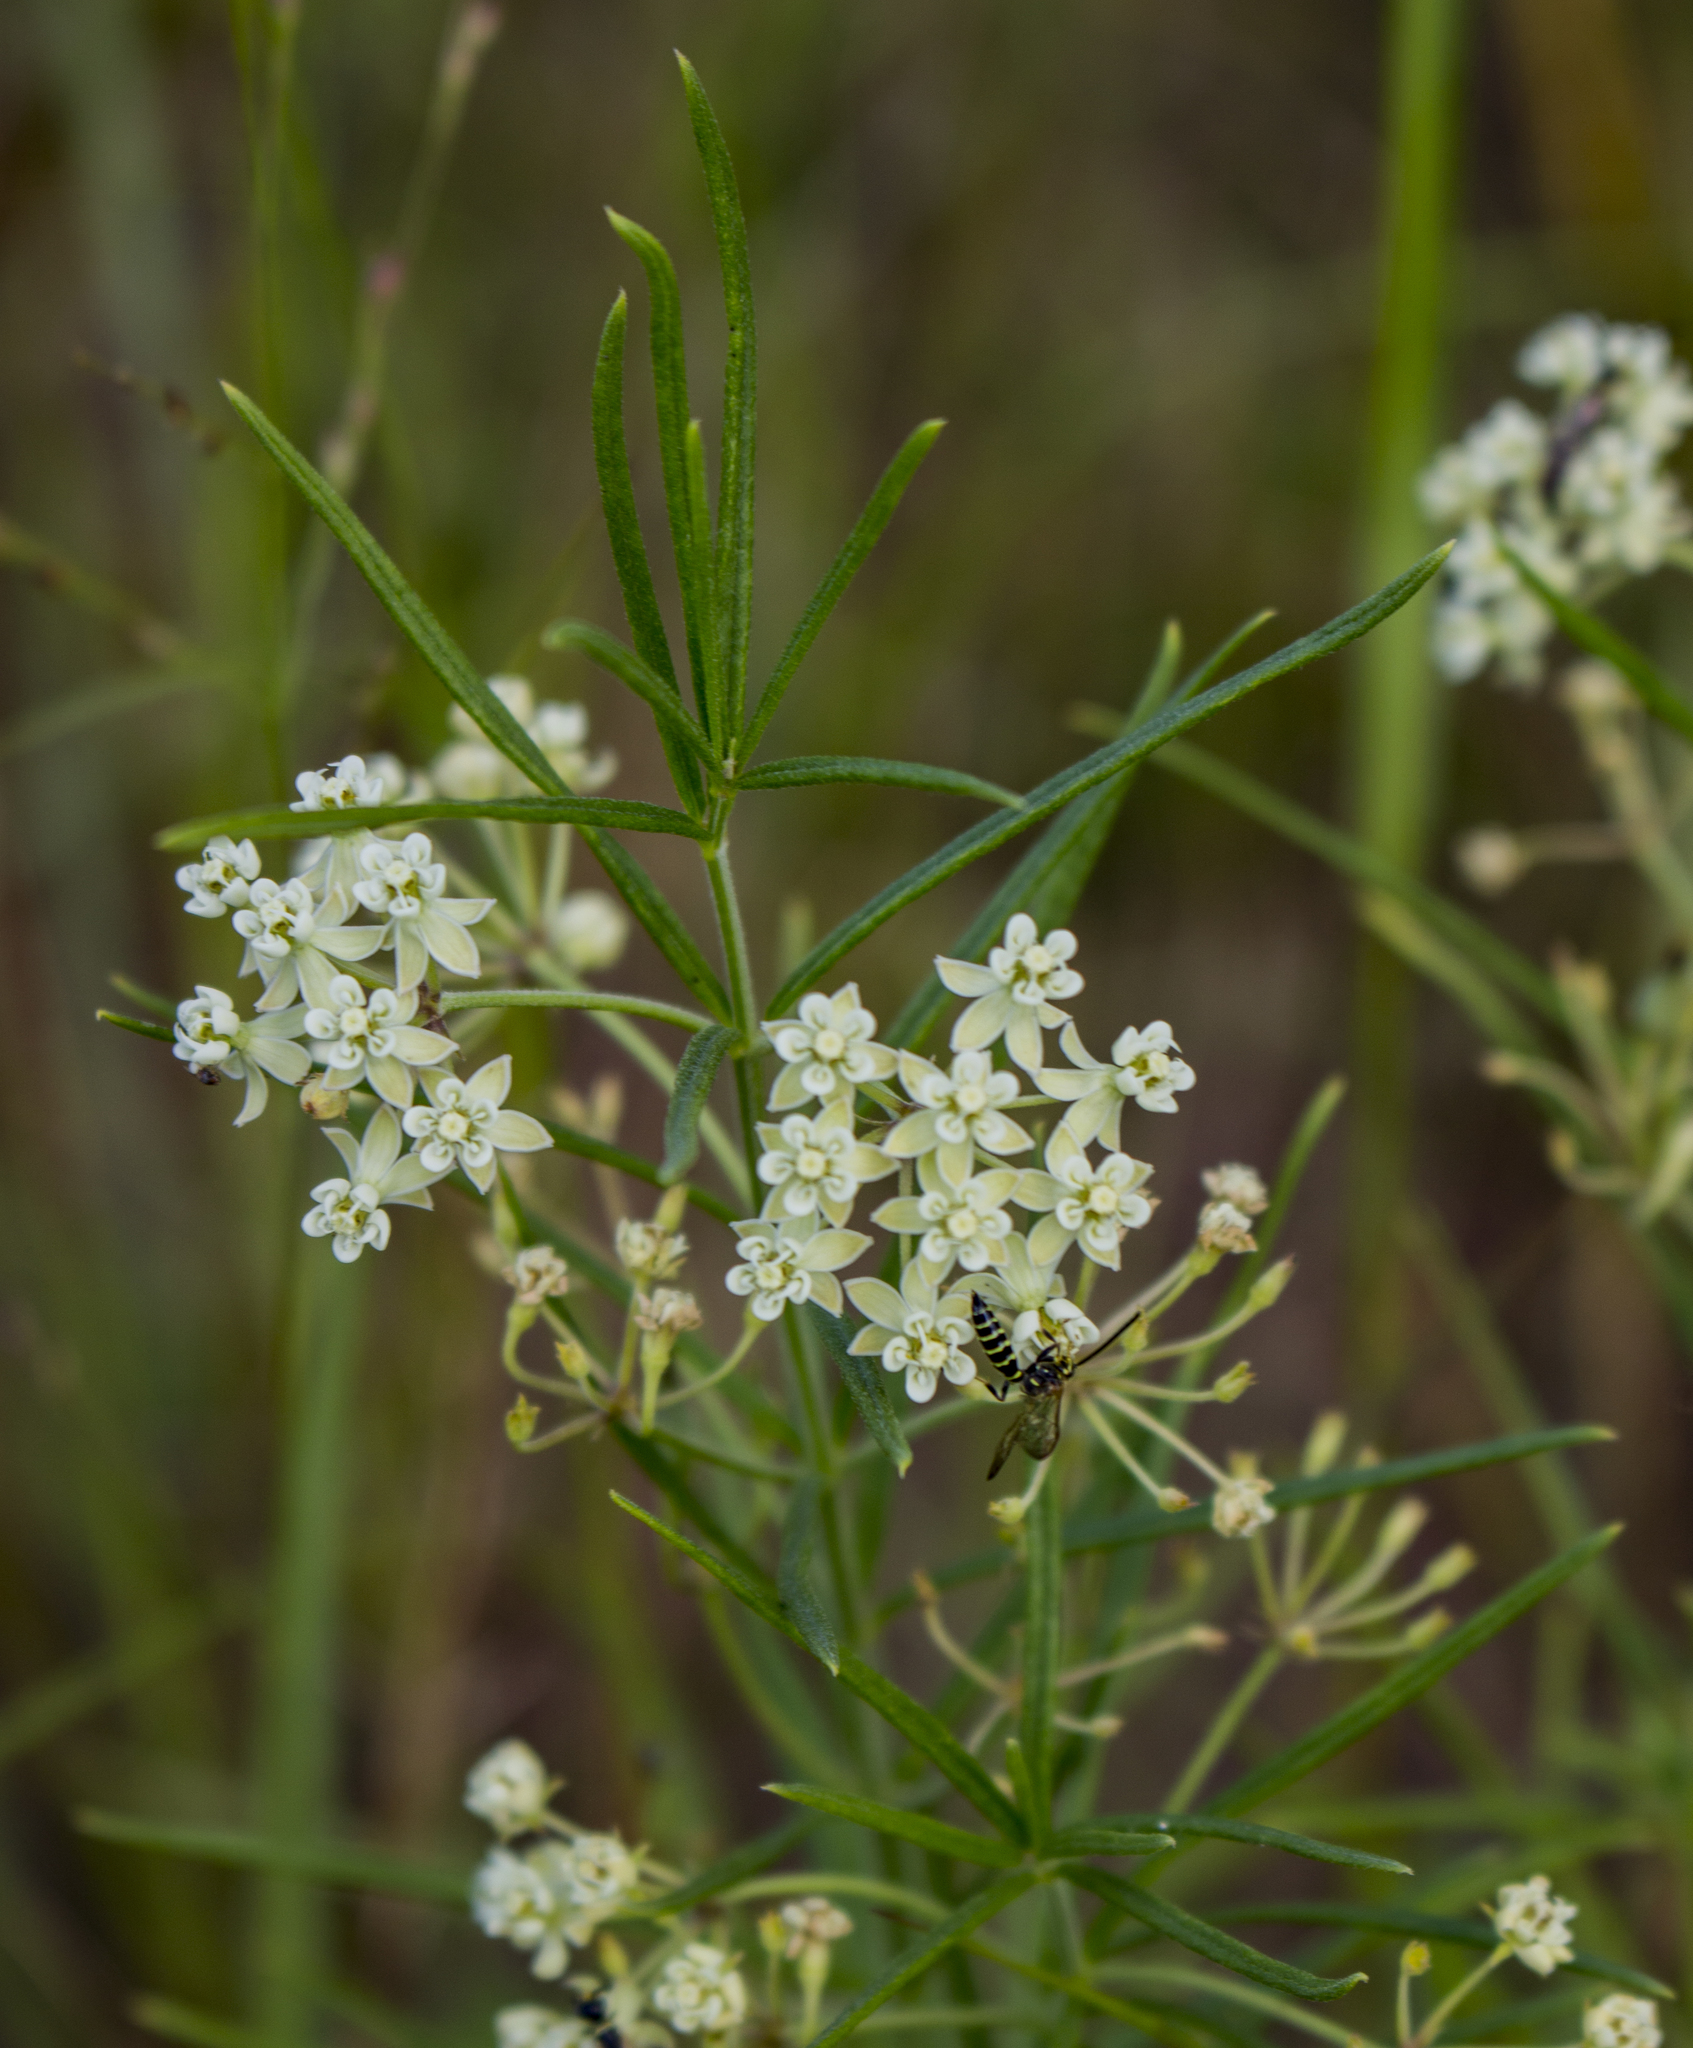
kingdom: Plantae
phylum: Tracheophyta
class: Magnoliopsida
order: Gentianales
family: Apocynaceae
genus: Asclepias
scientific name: Asclepias verticillata
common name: Eastern whorled milkweed
